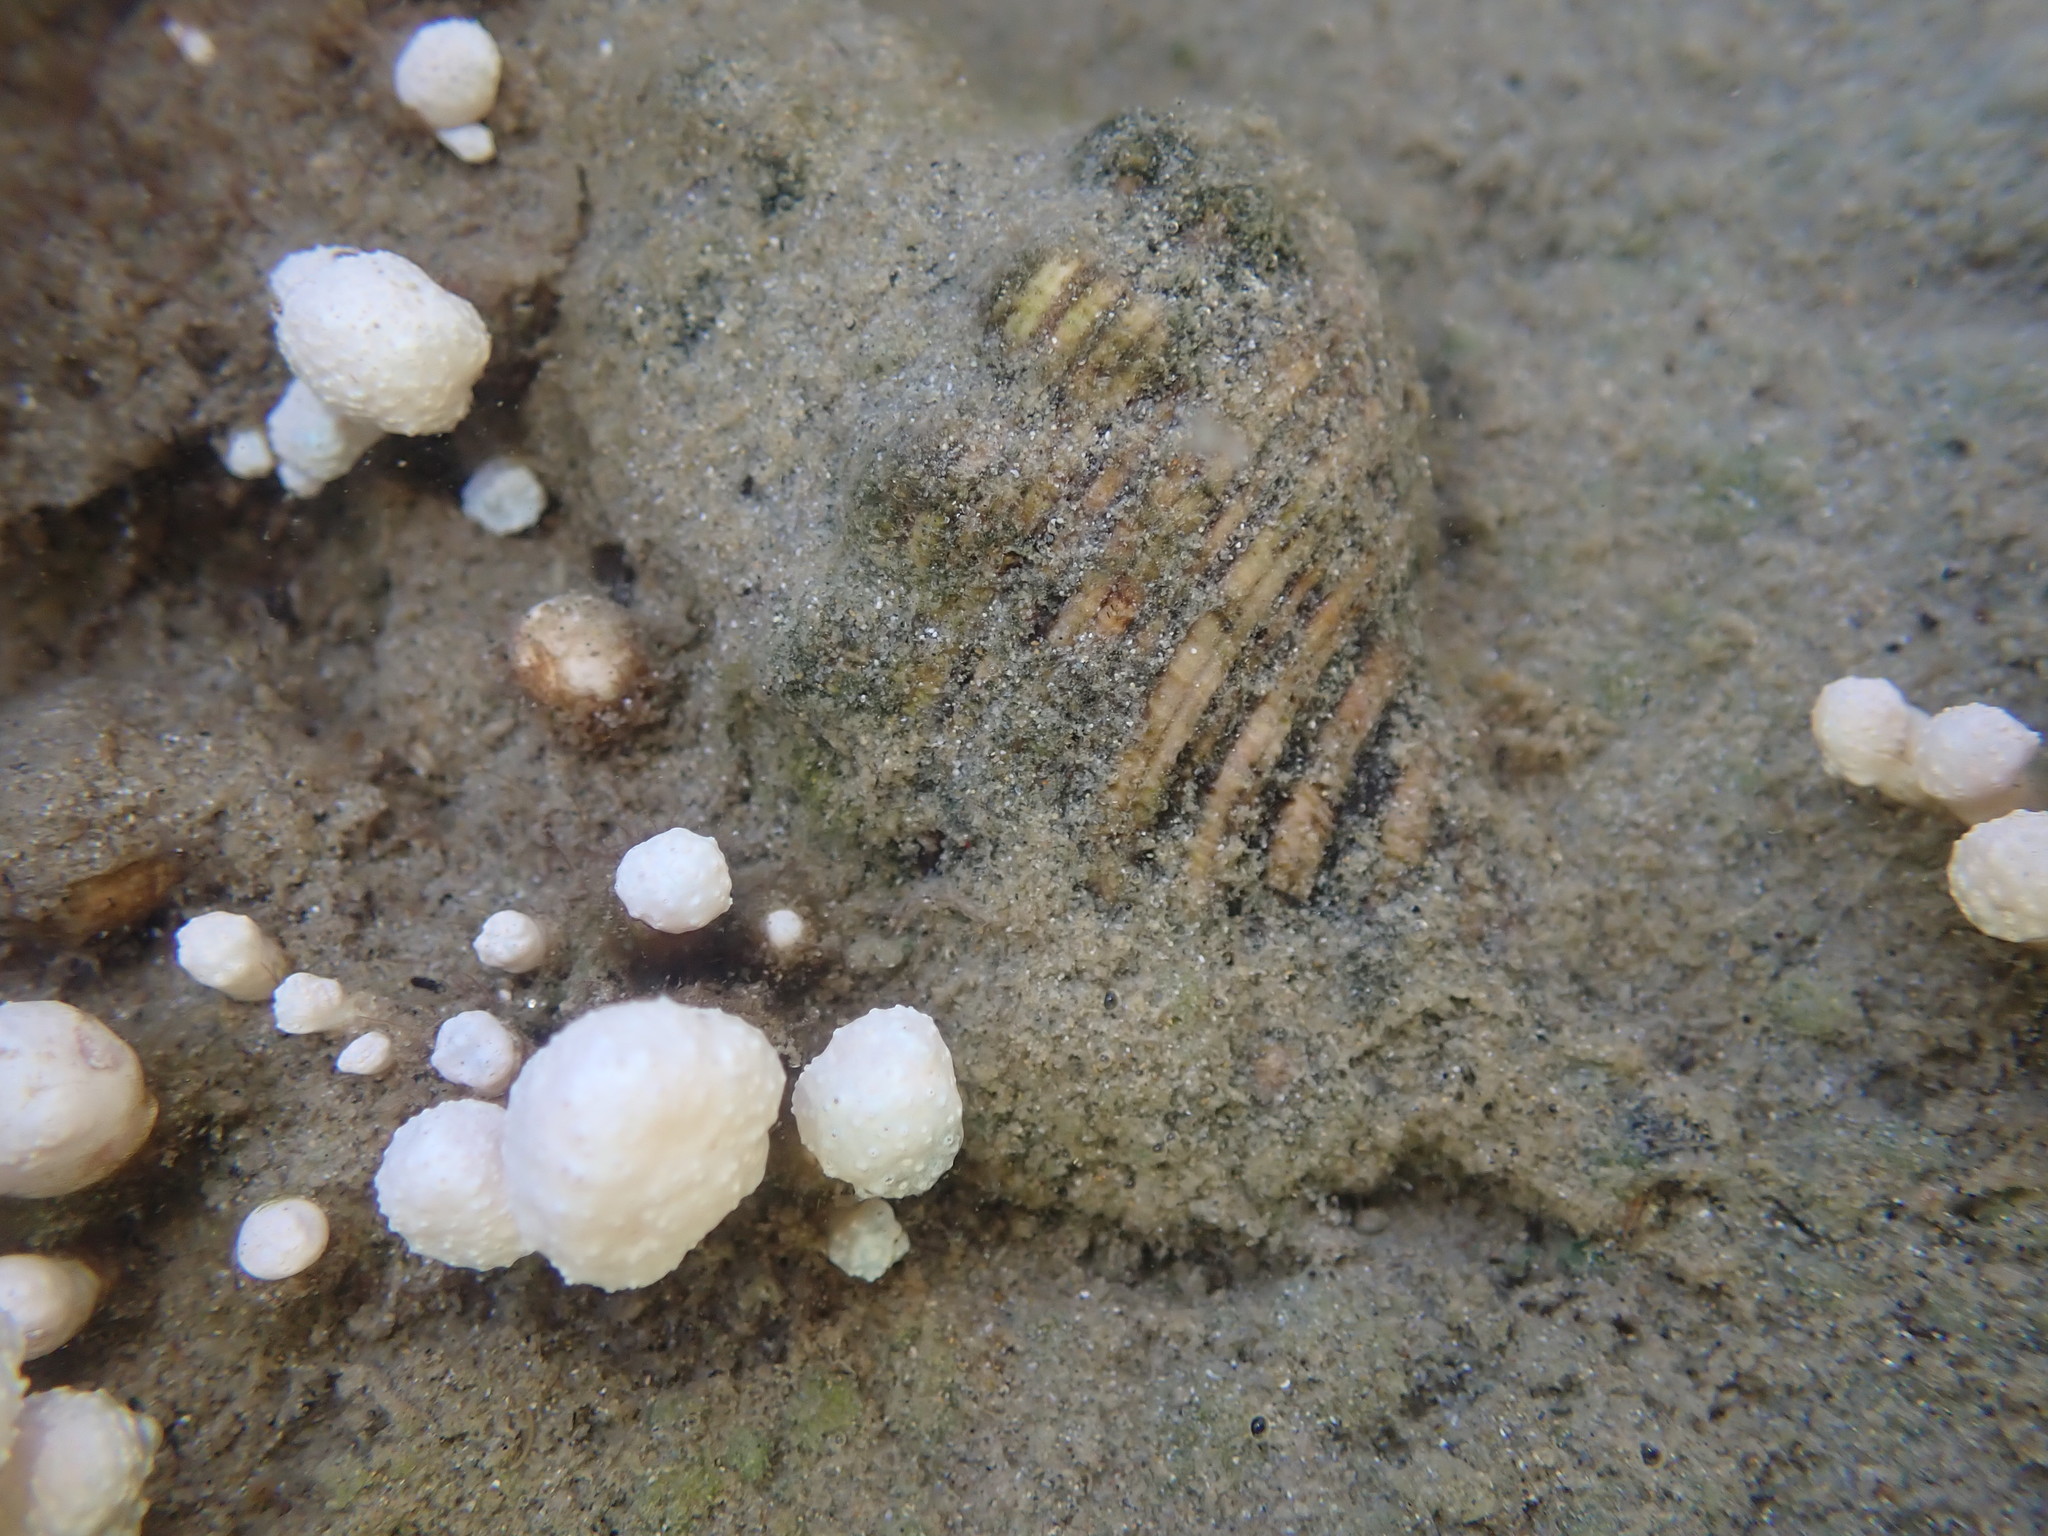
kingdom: Animalia
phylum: Mollusca
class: Gastropoda
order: Littorinimorpha
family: Cymatiidae
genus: Cabestana
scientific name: Cabestana spengleri
